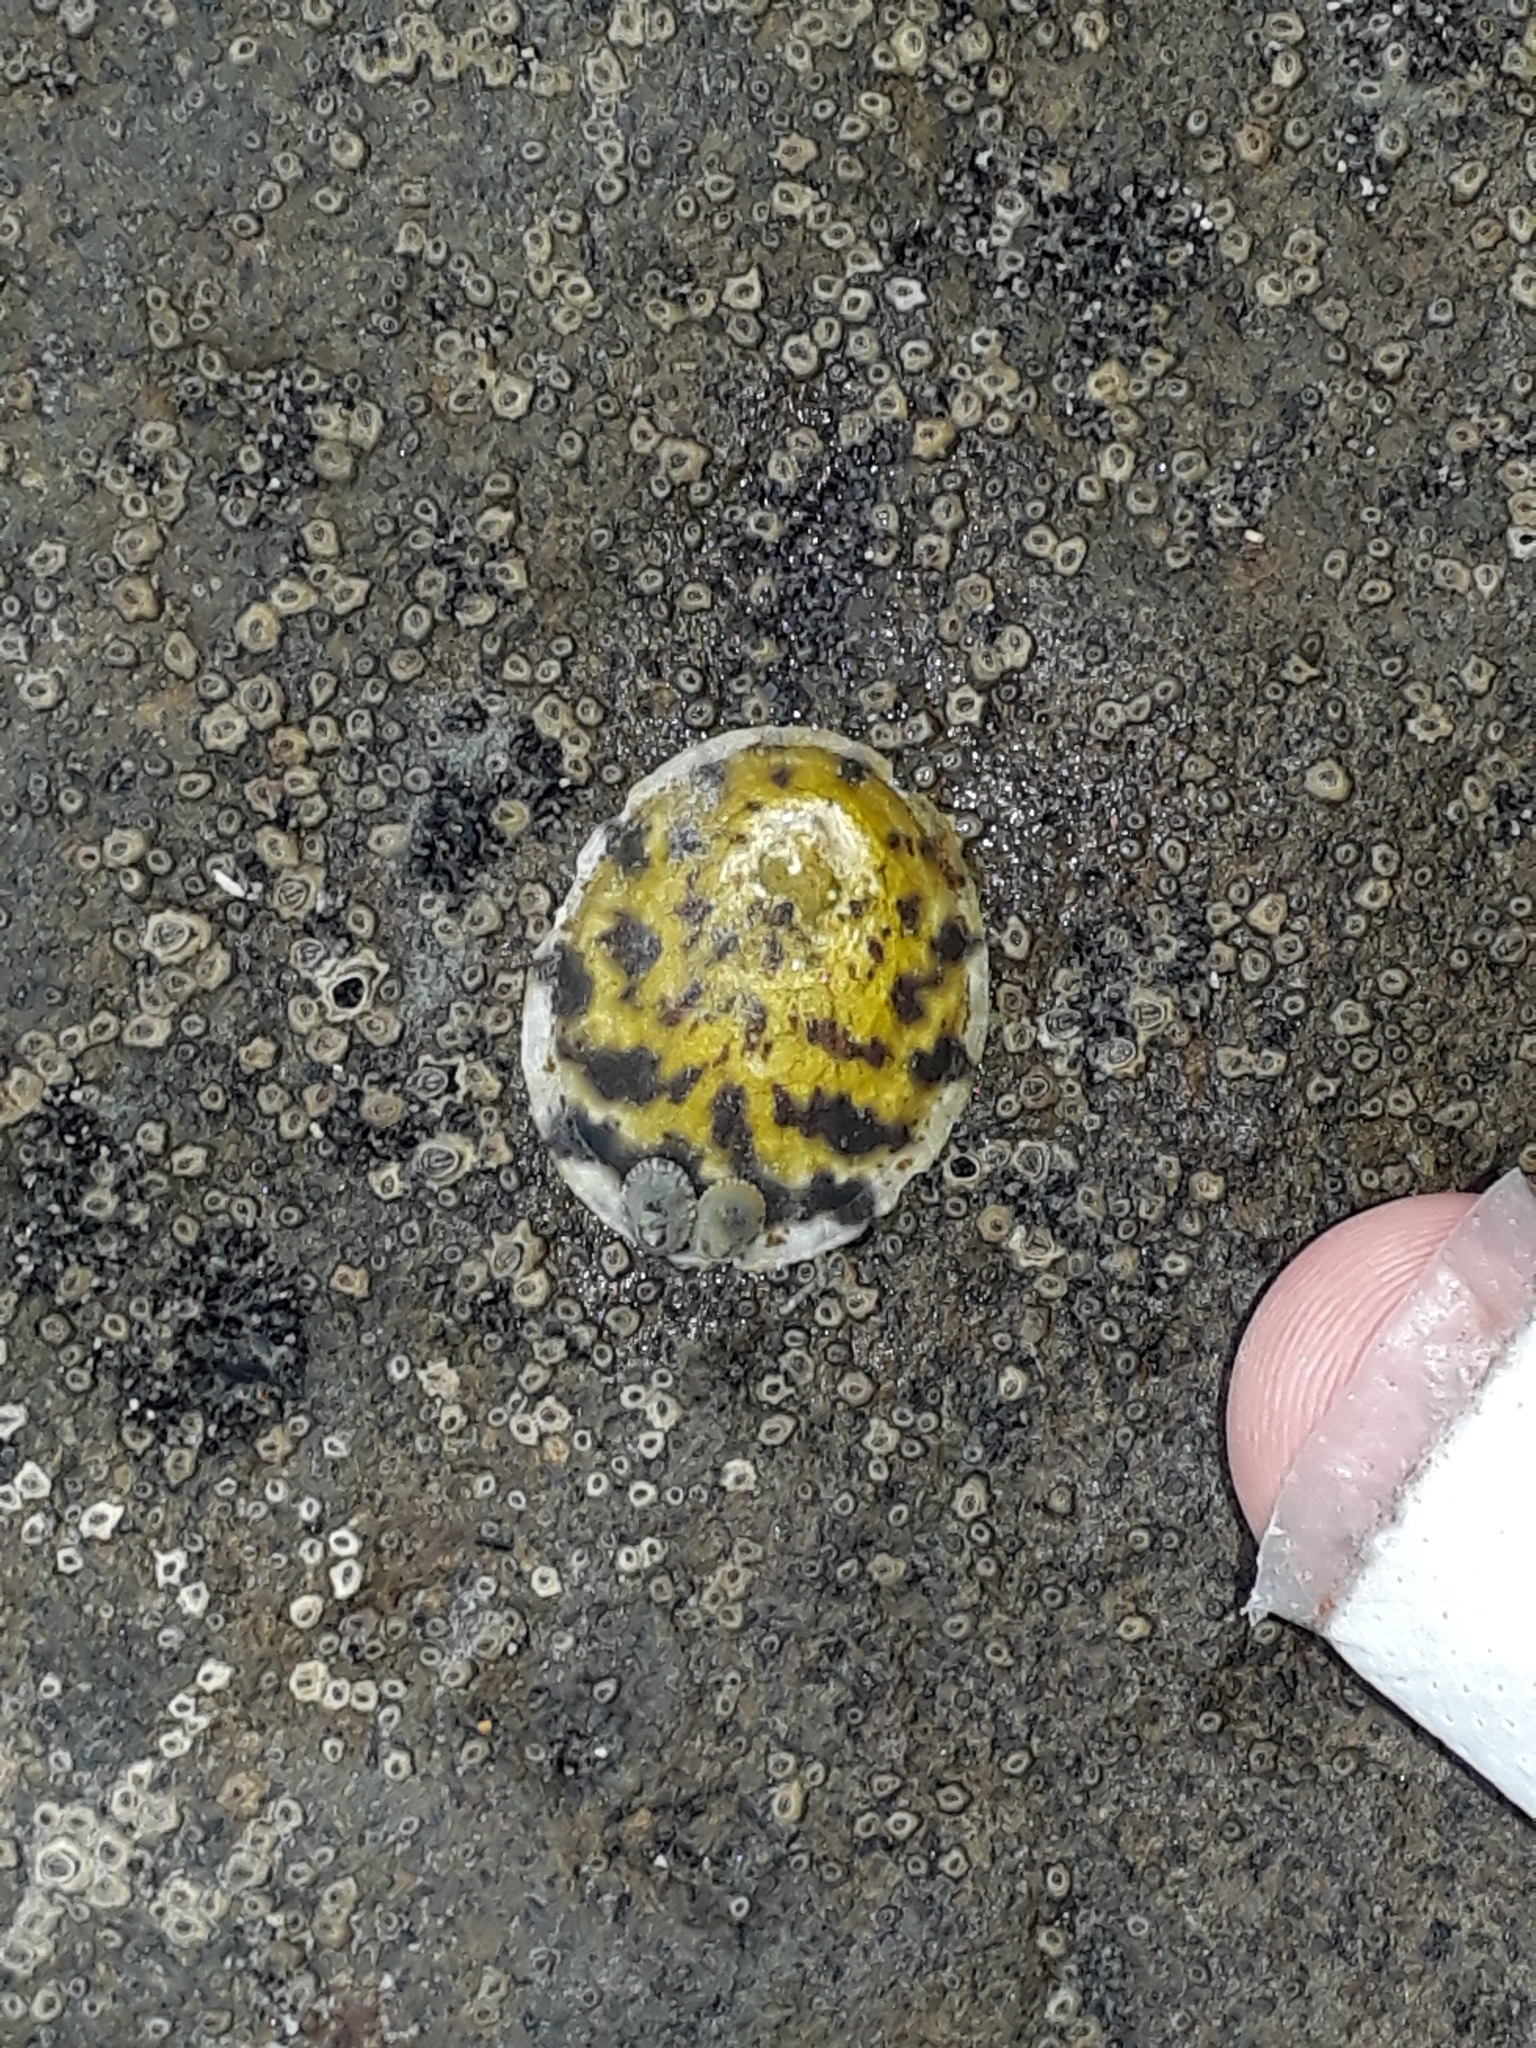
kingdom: Animalia
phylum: Mollusca
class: Gastropoda
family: Nacellidae
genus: Cellana
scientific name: Cellana radians
